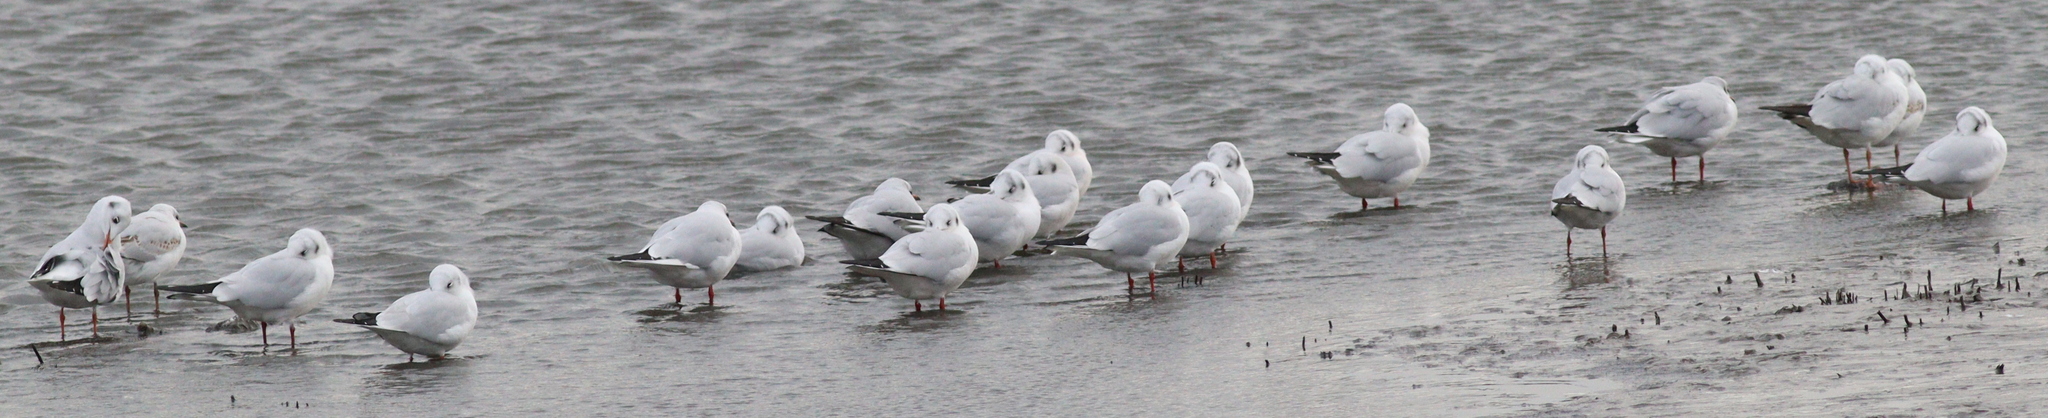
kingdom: Animalia
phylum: Chordata
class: Aves
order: Charadriiformes
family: Laridae
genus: Chroicocephalus
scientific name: Chroicocephalus ridibundus
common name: Black-headed gull
